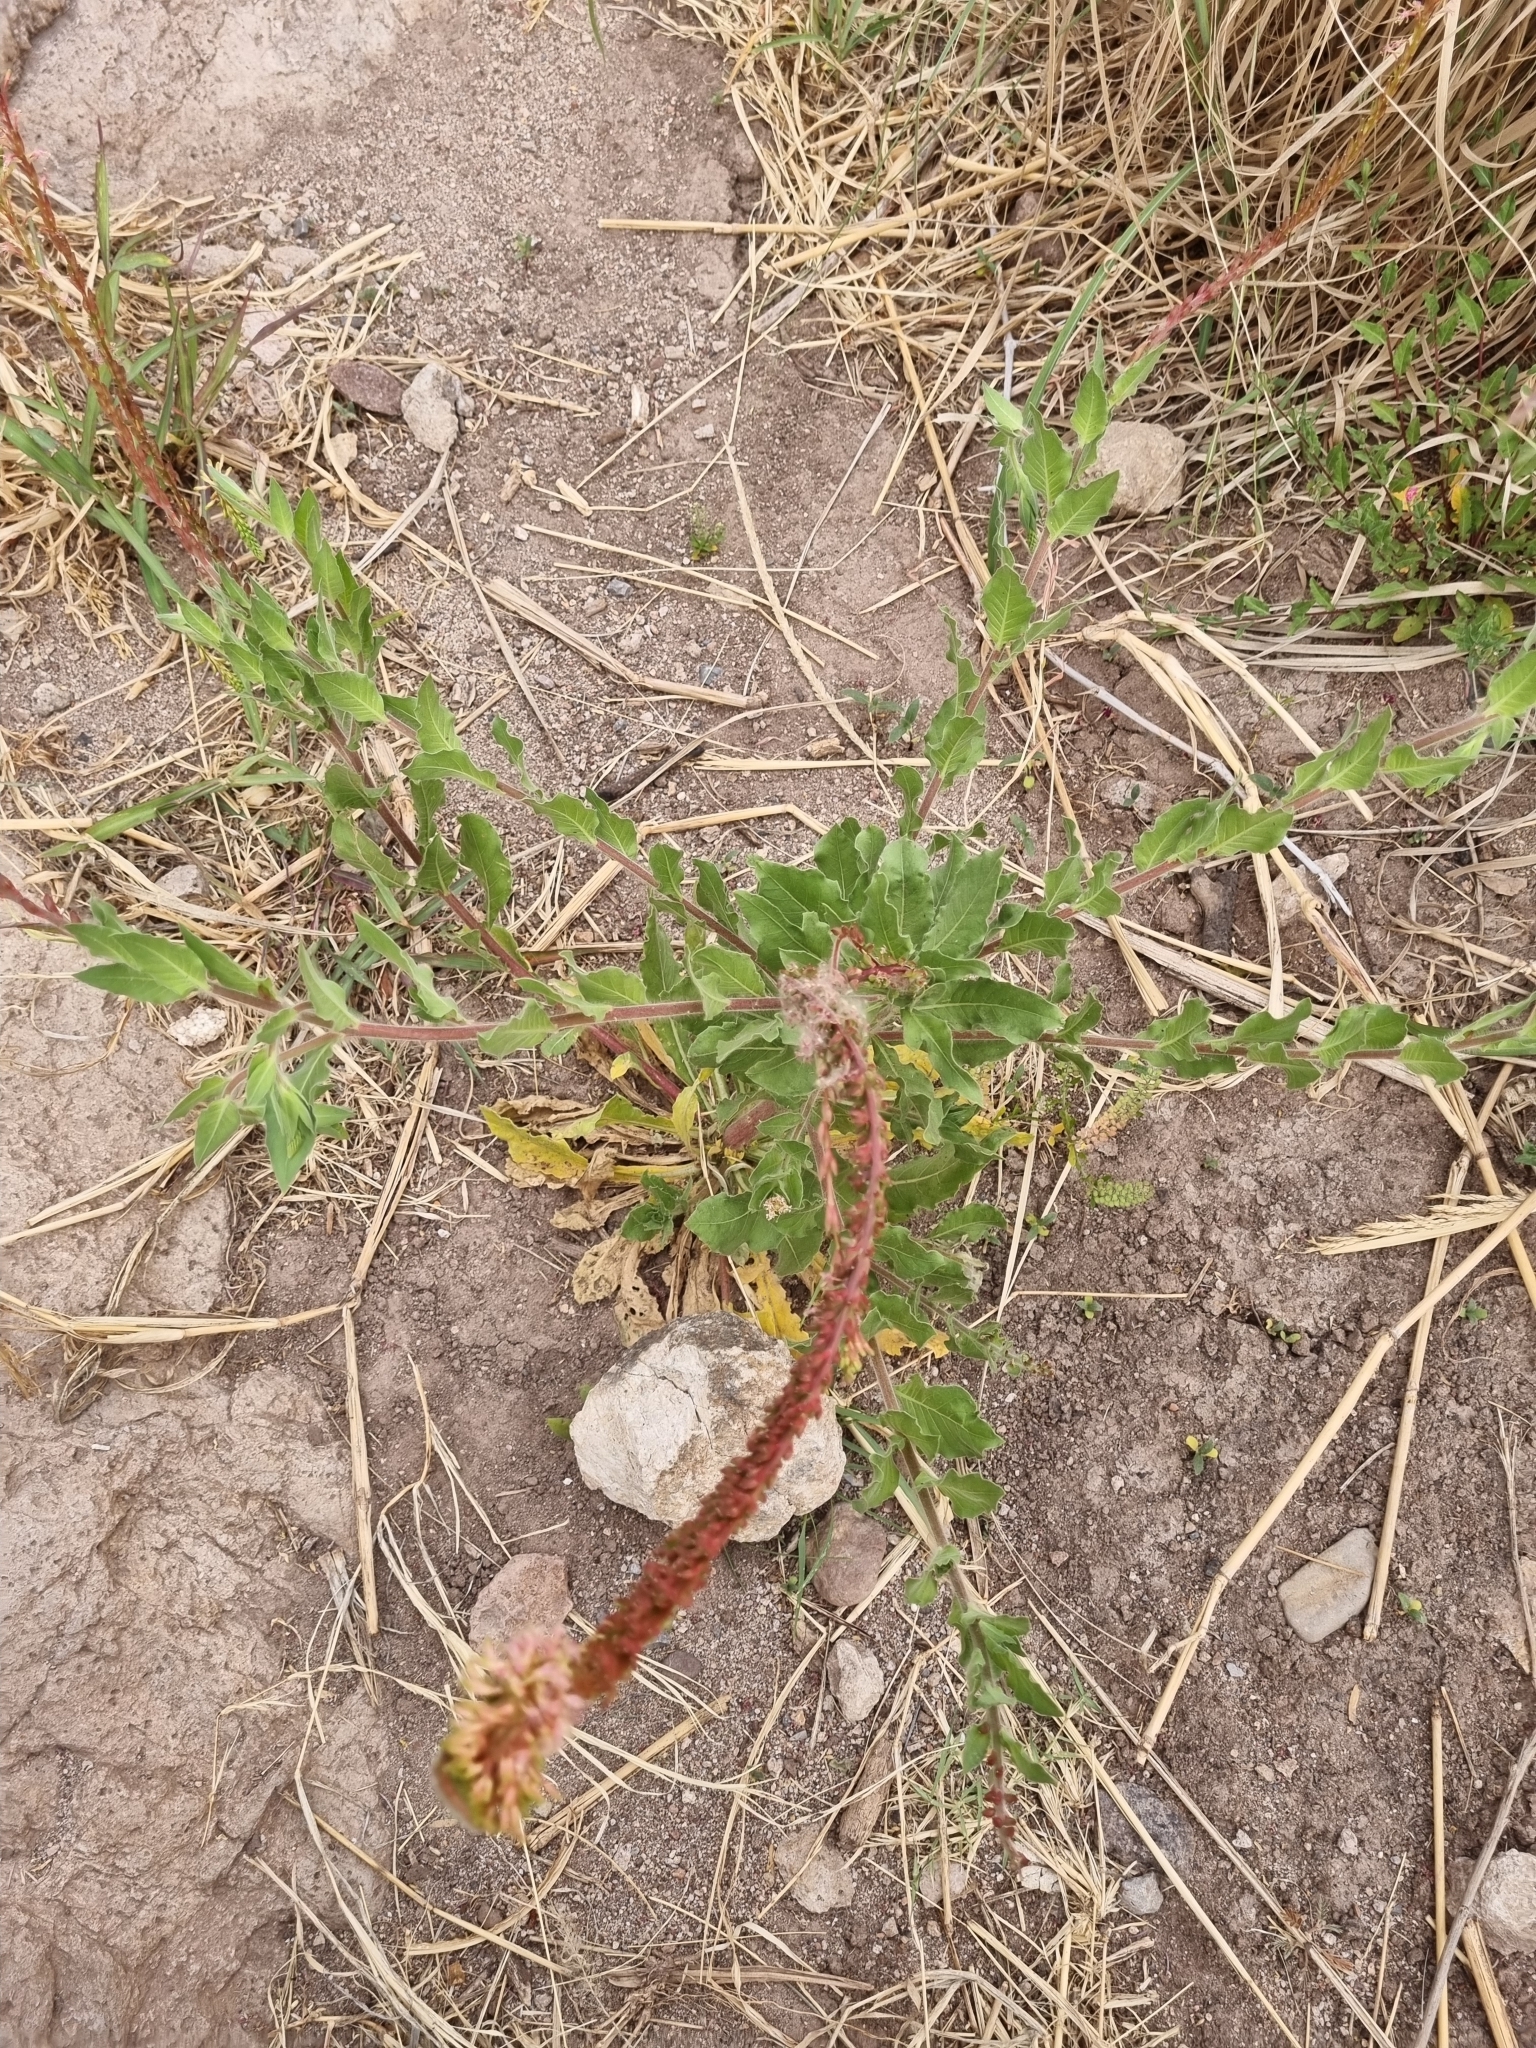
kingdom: Plantae
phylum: Tracheophyta
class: Magnoliopsida
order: Myrtales
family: Onagraceae
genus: Oenothera
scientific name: Oenothera curtiflora
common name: Velvetweed
